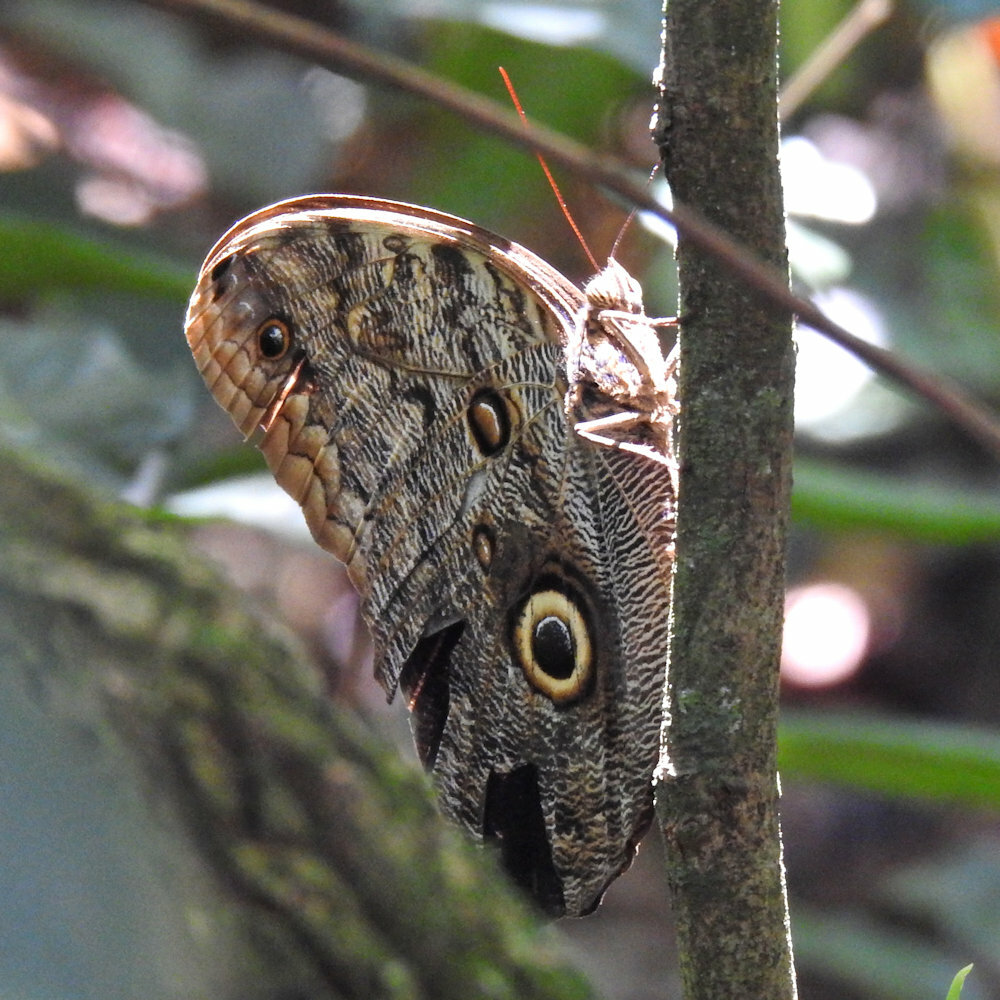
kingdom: Animalia
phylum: Arthropoda
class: Insecta
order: Lepidoptera
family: Nymphalidae
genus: Caligo
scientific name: Caligo telamonius
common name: Pale owl-butterfly
